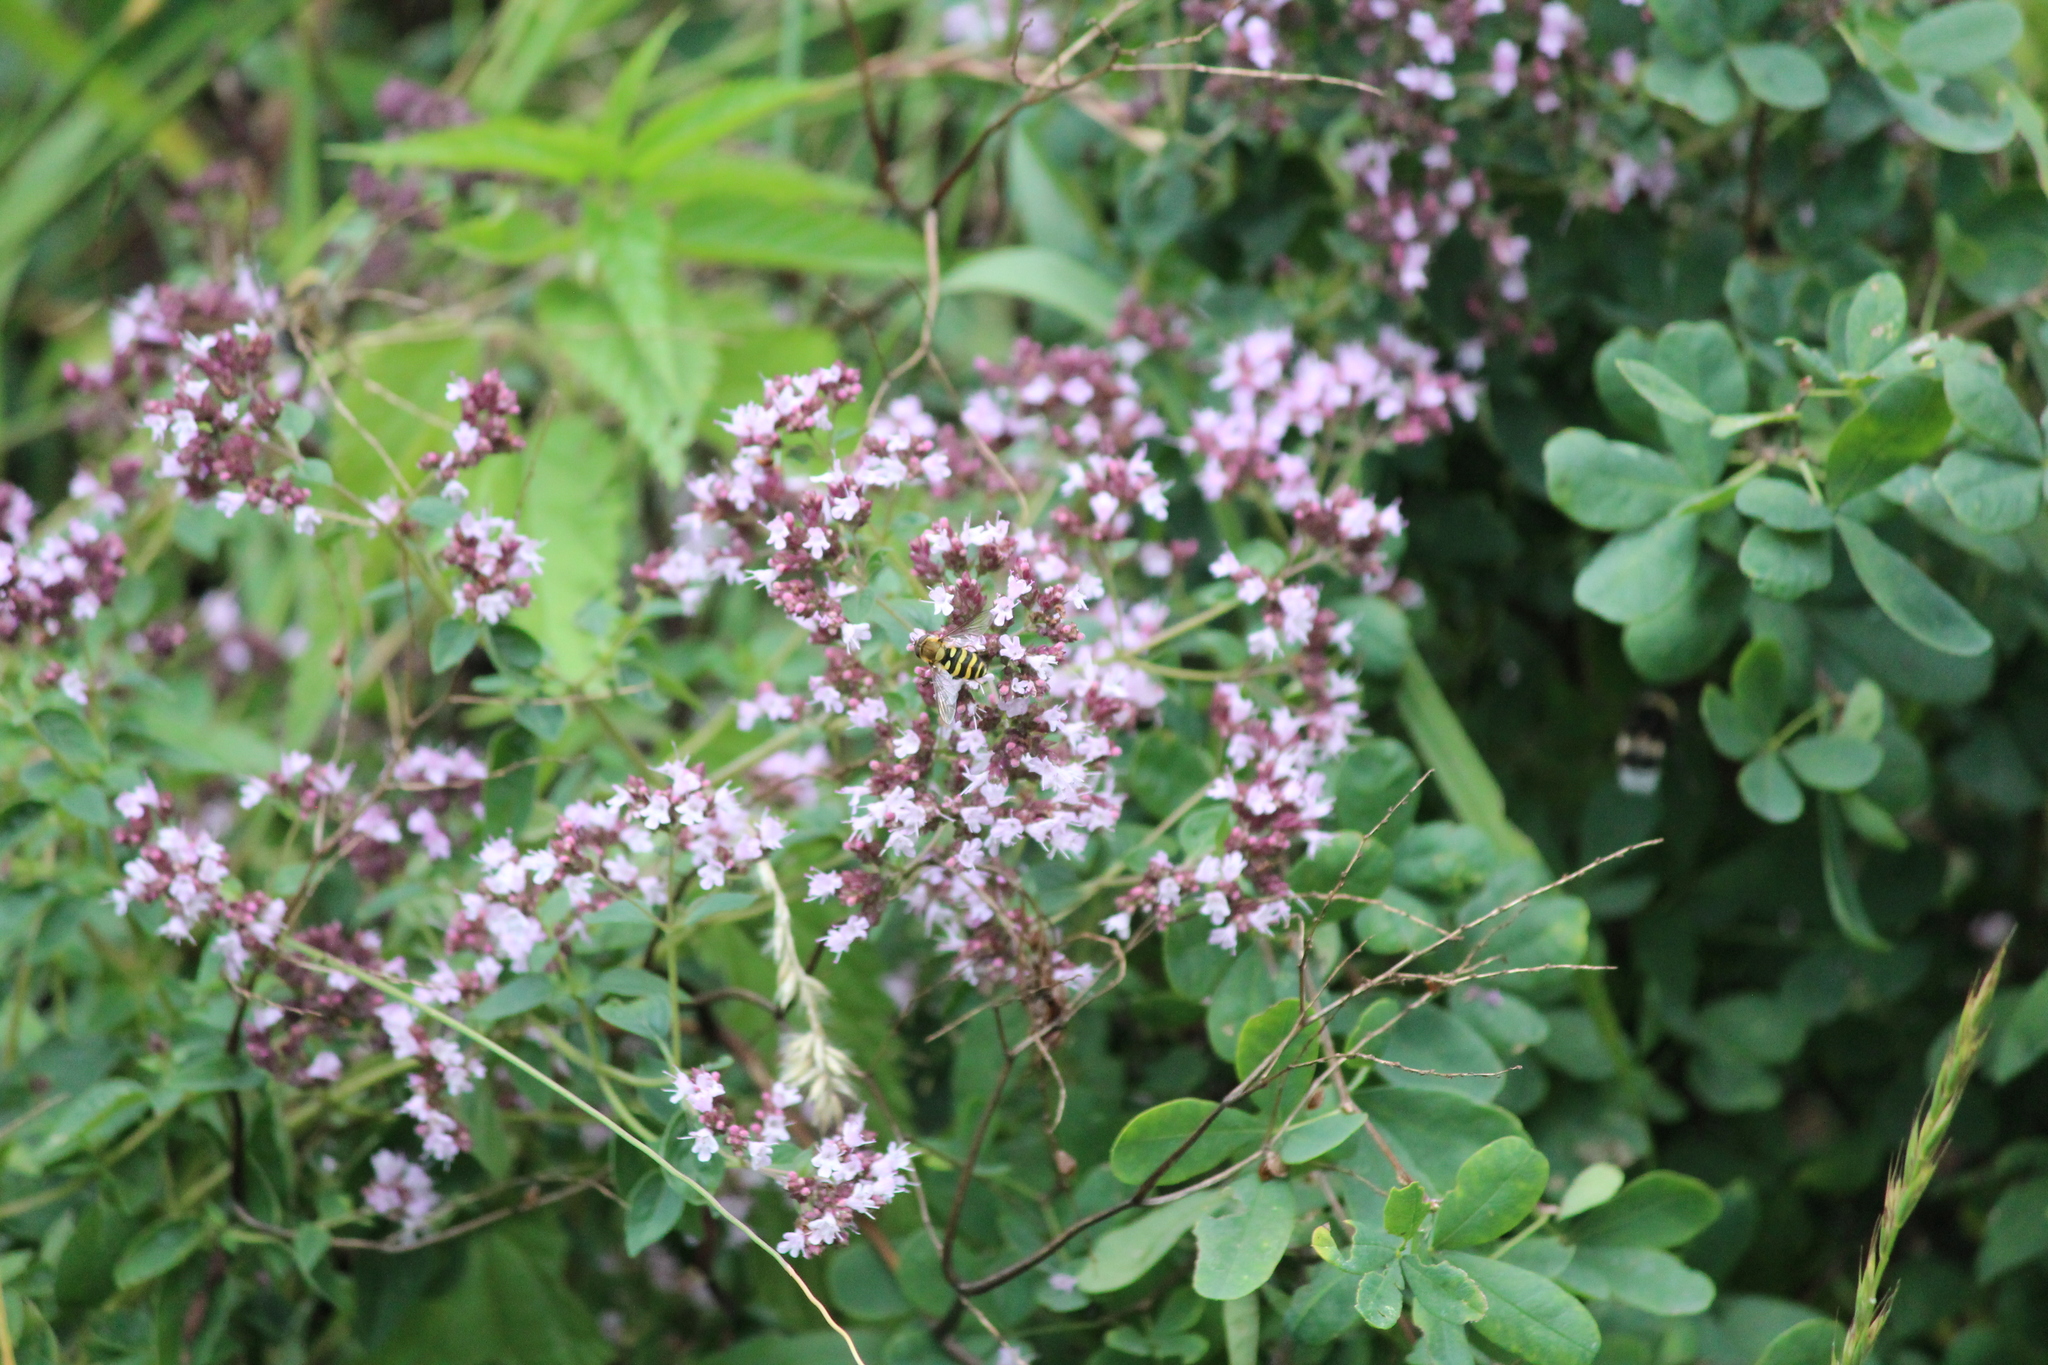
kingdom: Plantae
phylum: Tracheophyta
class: Magnoliopsida
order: Lamiales
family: Lamiaceae
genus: Origanum
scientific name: Origanum vulgare
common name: Wild marjoram
